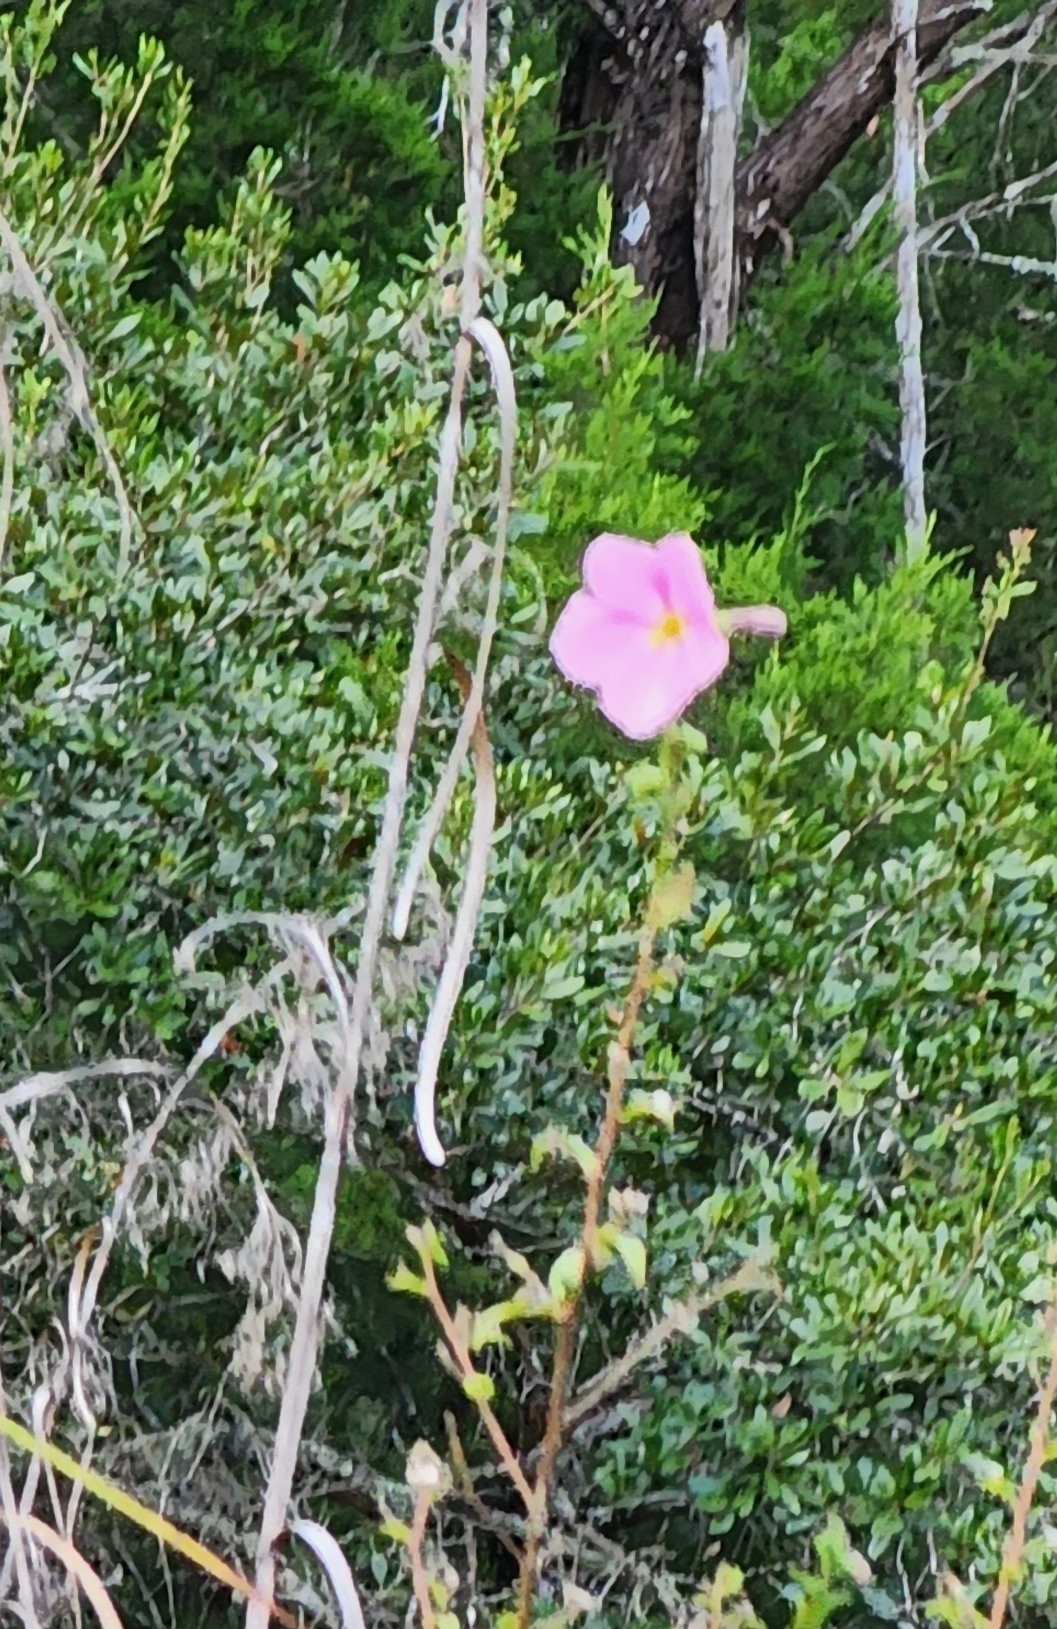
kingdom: Plantae
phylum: Tracheophyta
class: Magnoliopsida
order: Malvales
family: Malvaceae
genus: Kosteletzkya
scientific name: Kosteletzkya pentacarpos
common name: Virginia saltmarsh mallow
